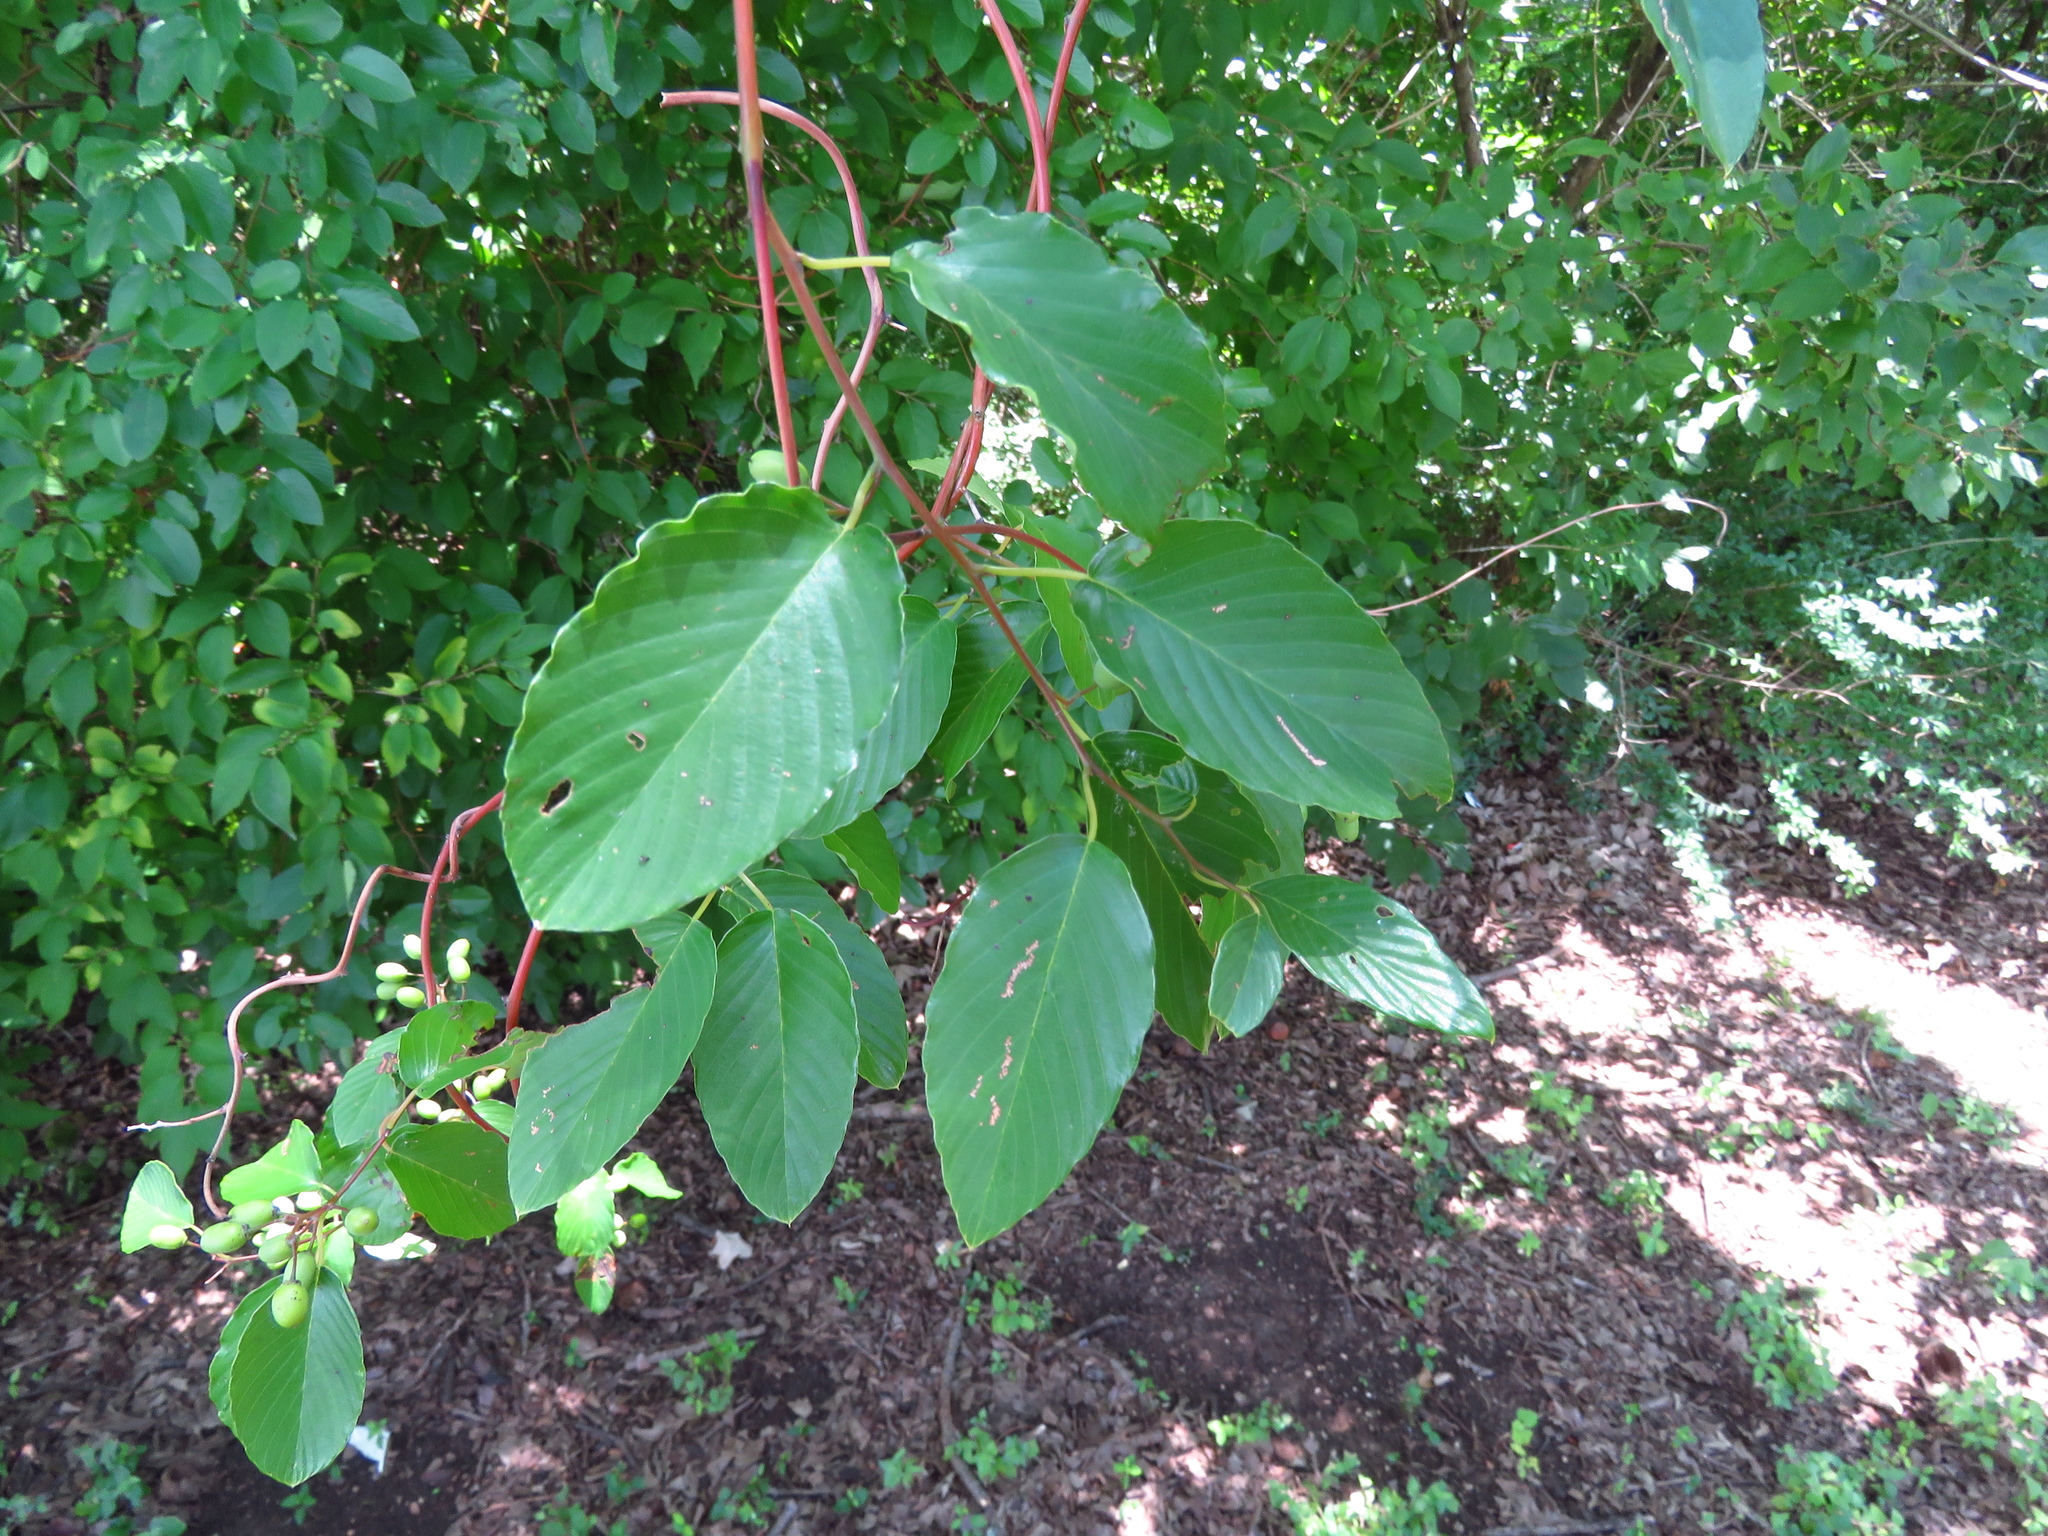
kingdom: Plantae
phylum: Tracheophyta
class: Magnoliopsida
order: Rosales
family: Rhamnaceae
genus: Berchemia
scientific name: Berchemia scandens
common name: Supplejack
